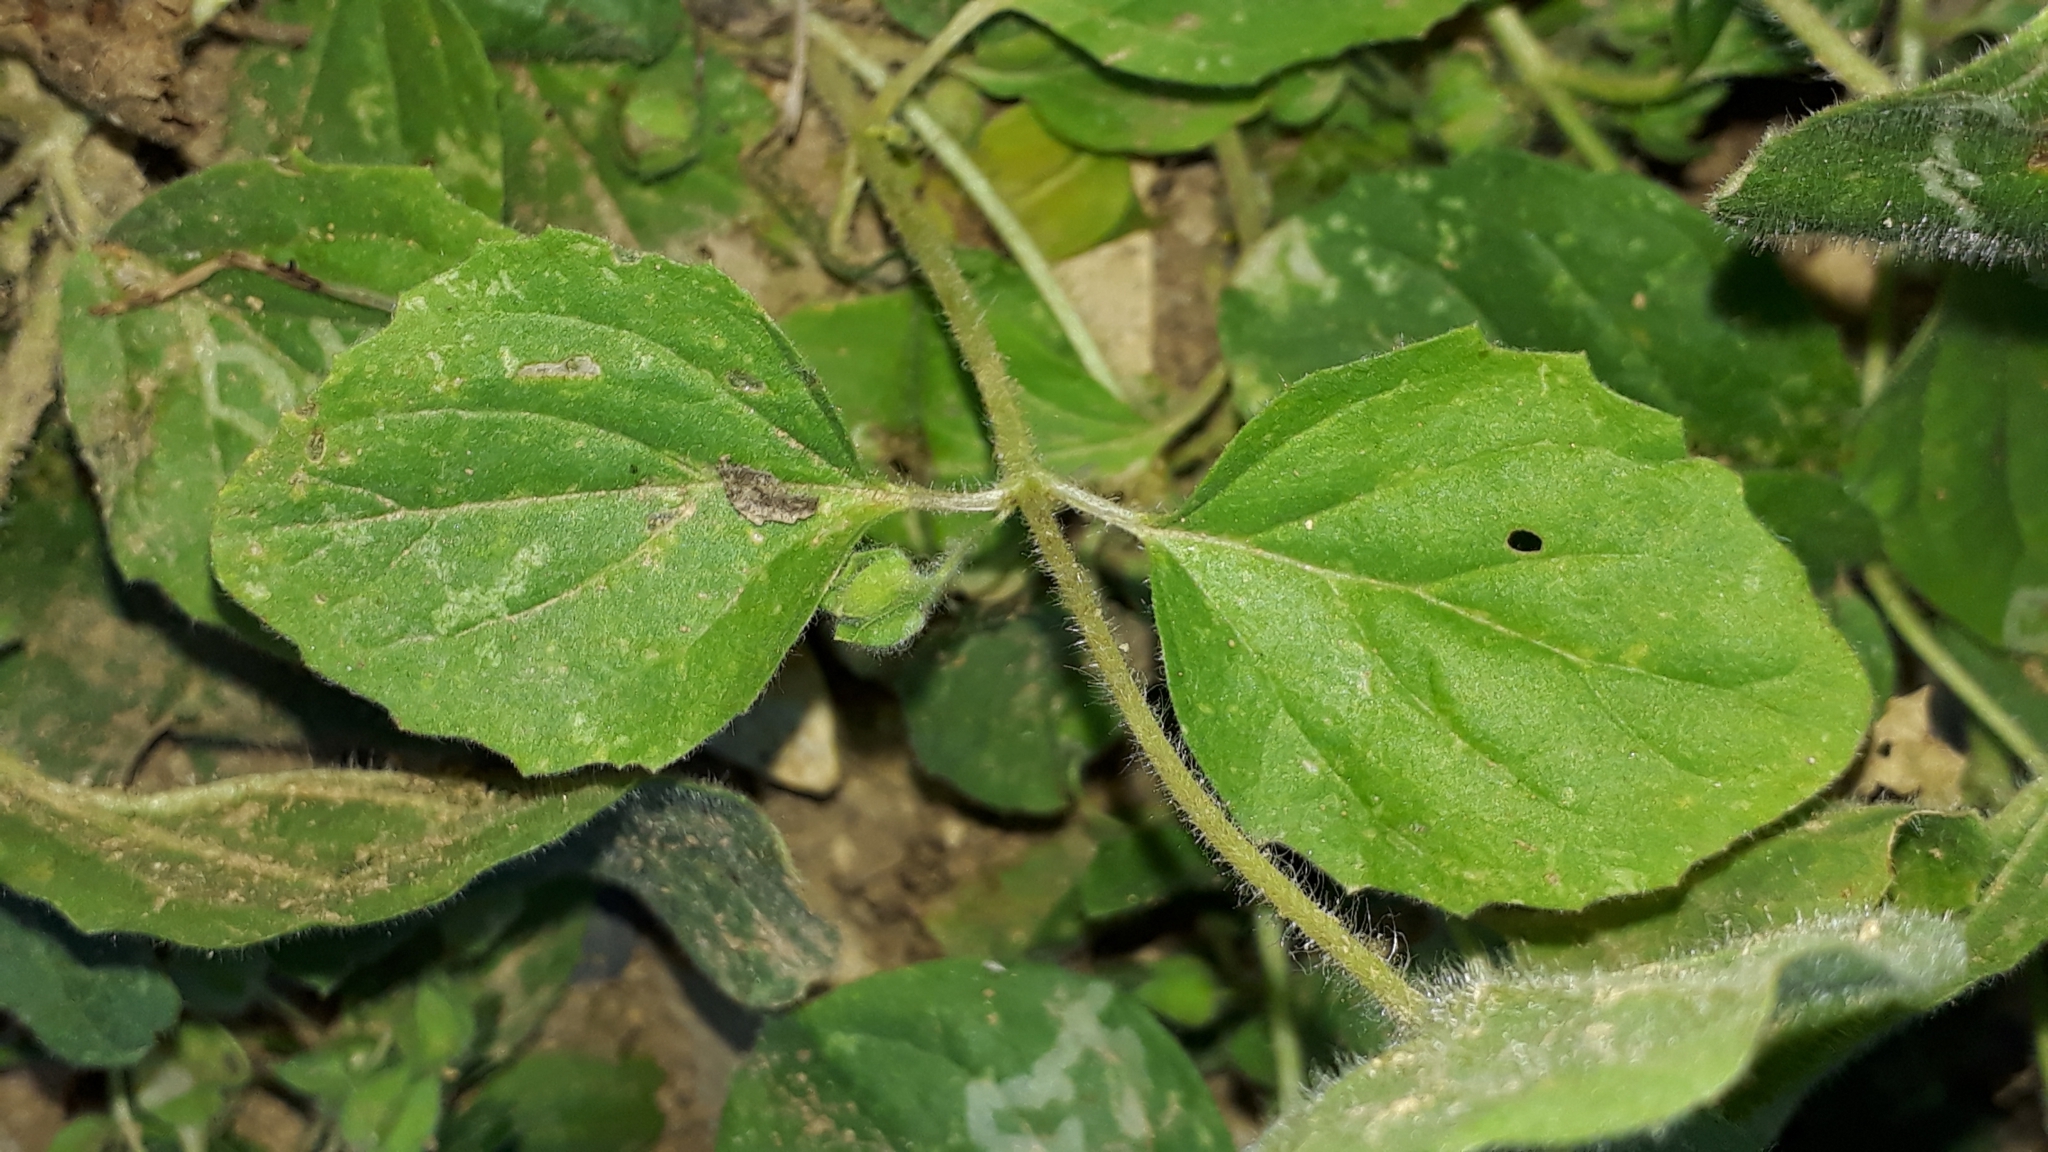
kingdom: Plantae
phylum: Tracheophyta
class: Magnoliopsida
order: Lamiales
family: Plantaginaceae
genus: Kickxia
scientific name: Kickxia spuria
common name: Round-leaved fluellen
